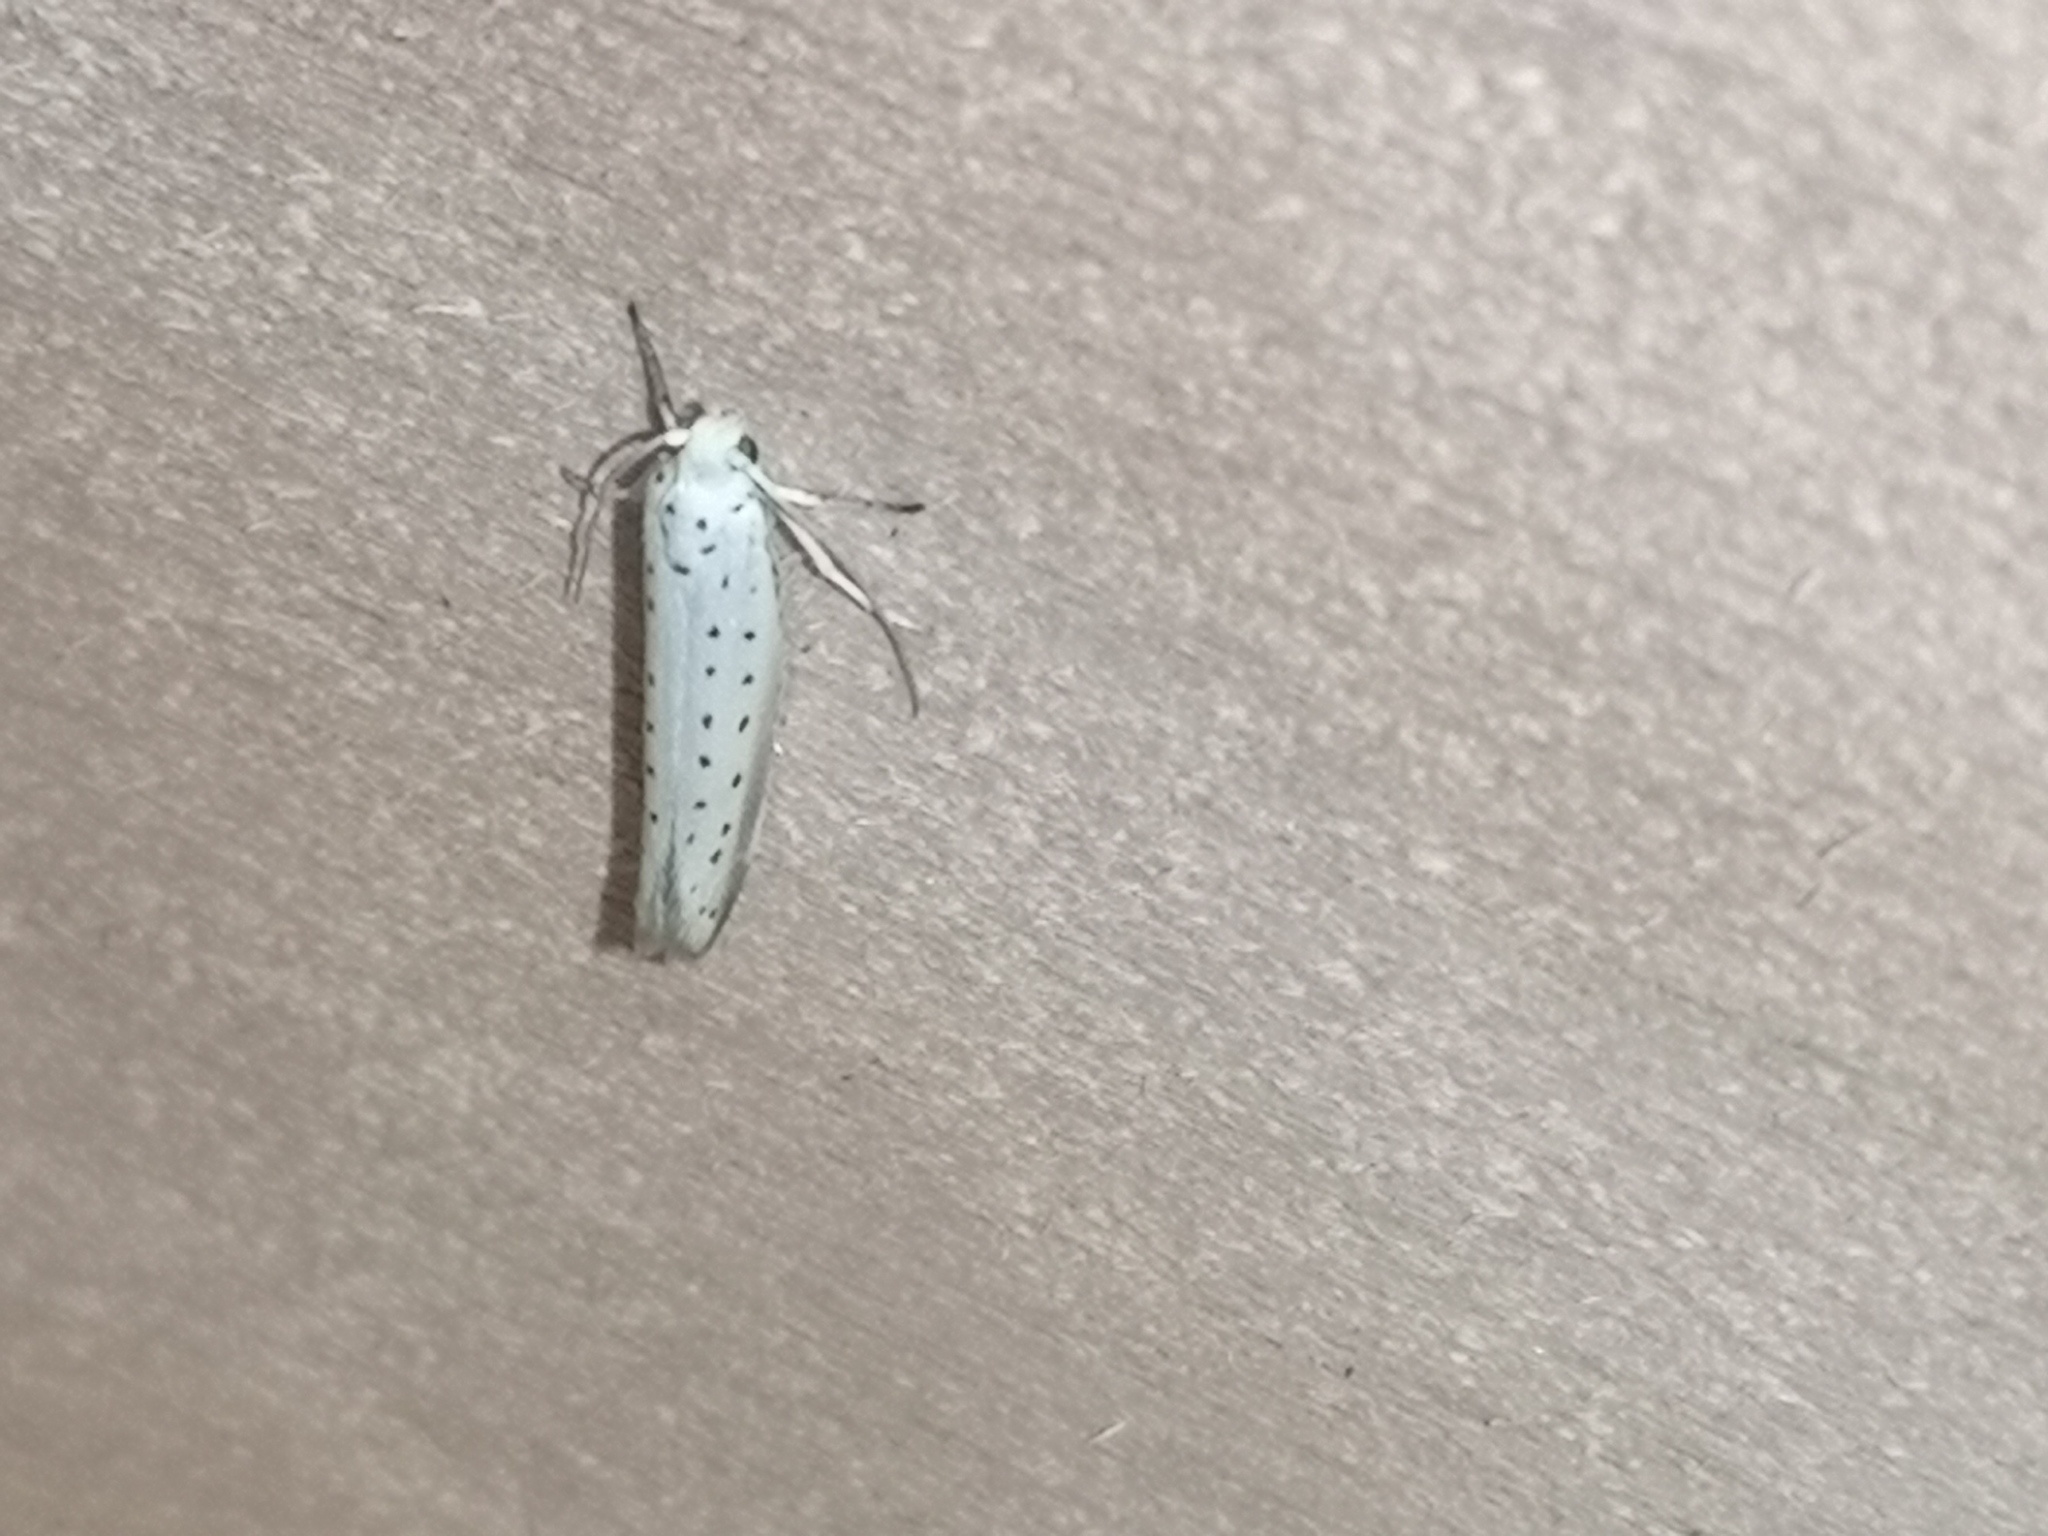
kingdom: Animalia
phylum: Arthropoda
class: Insecta
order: Lepidoptera
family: Yponomeutidae
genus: Yponomeuta
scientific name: Yponomeuta padella
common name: Orchard ermine
